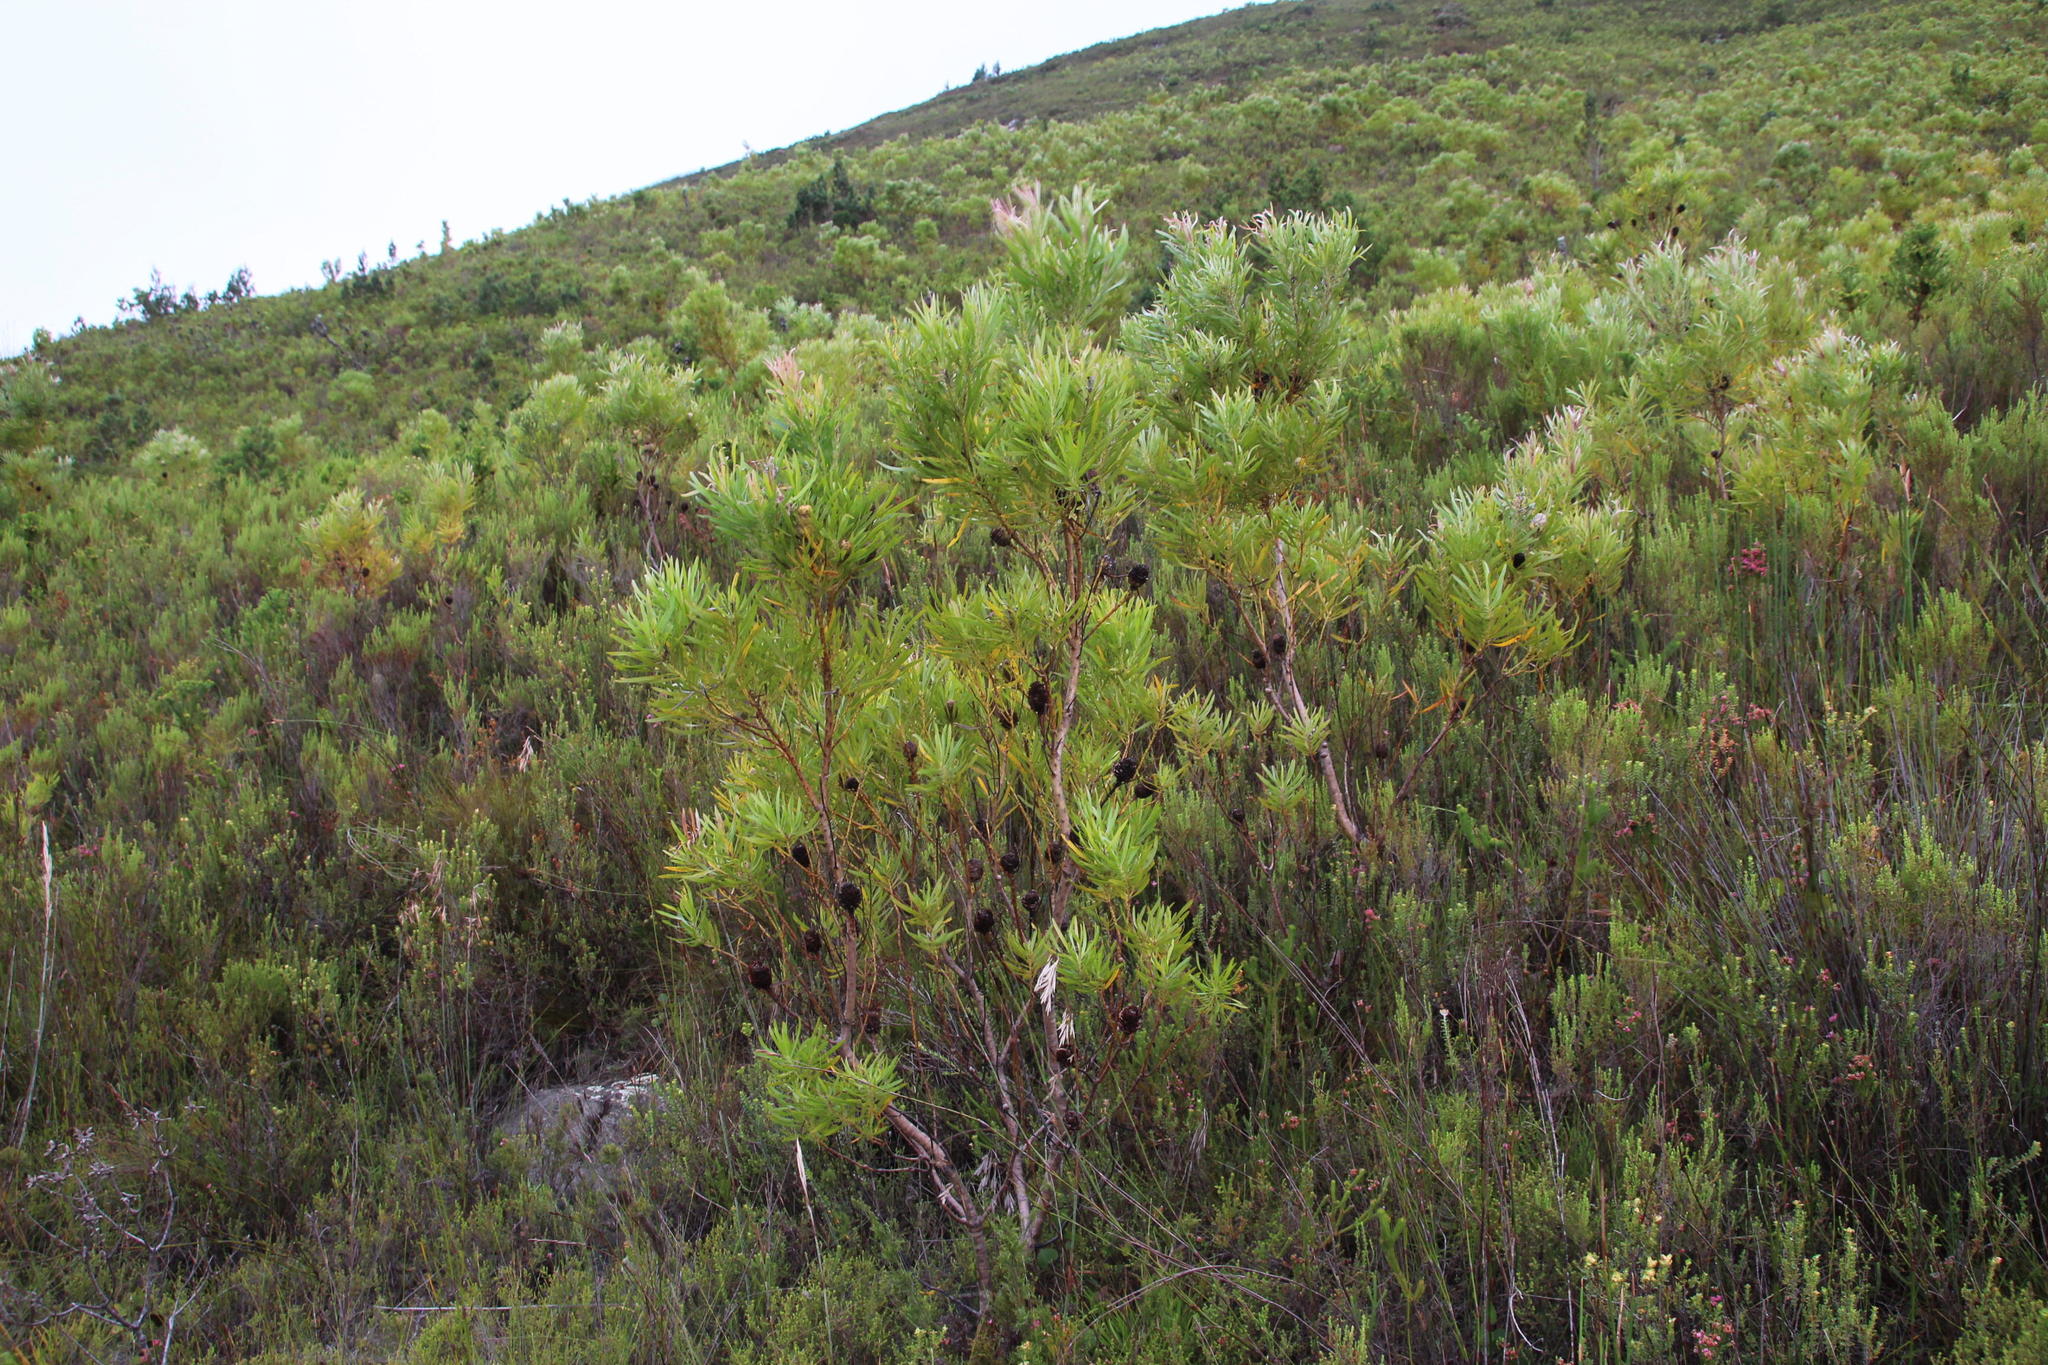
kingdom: Plantae
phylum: Tracheophyta
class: Magnoliopsida
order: Proteales
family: Proteaceae
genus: Leucadendron
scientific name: Leucadendron eucalyptifolium
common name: Gum-leaved conebush
